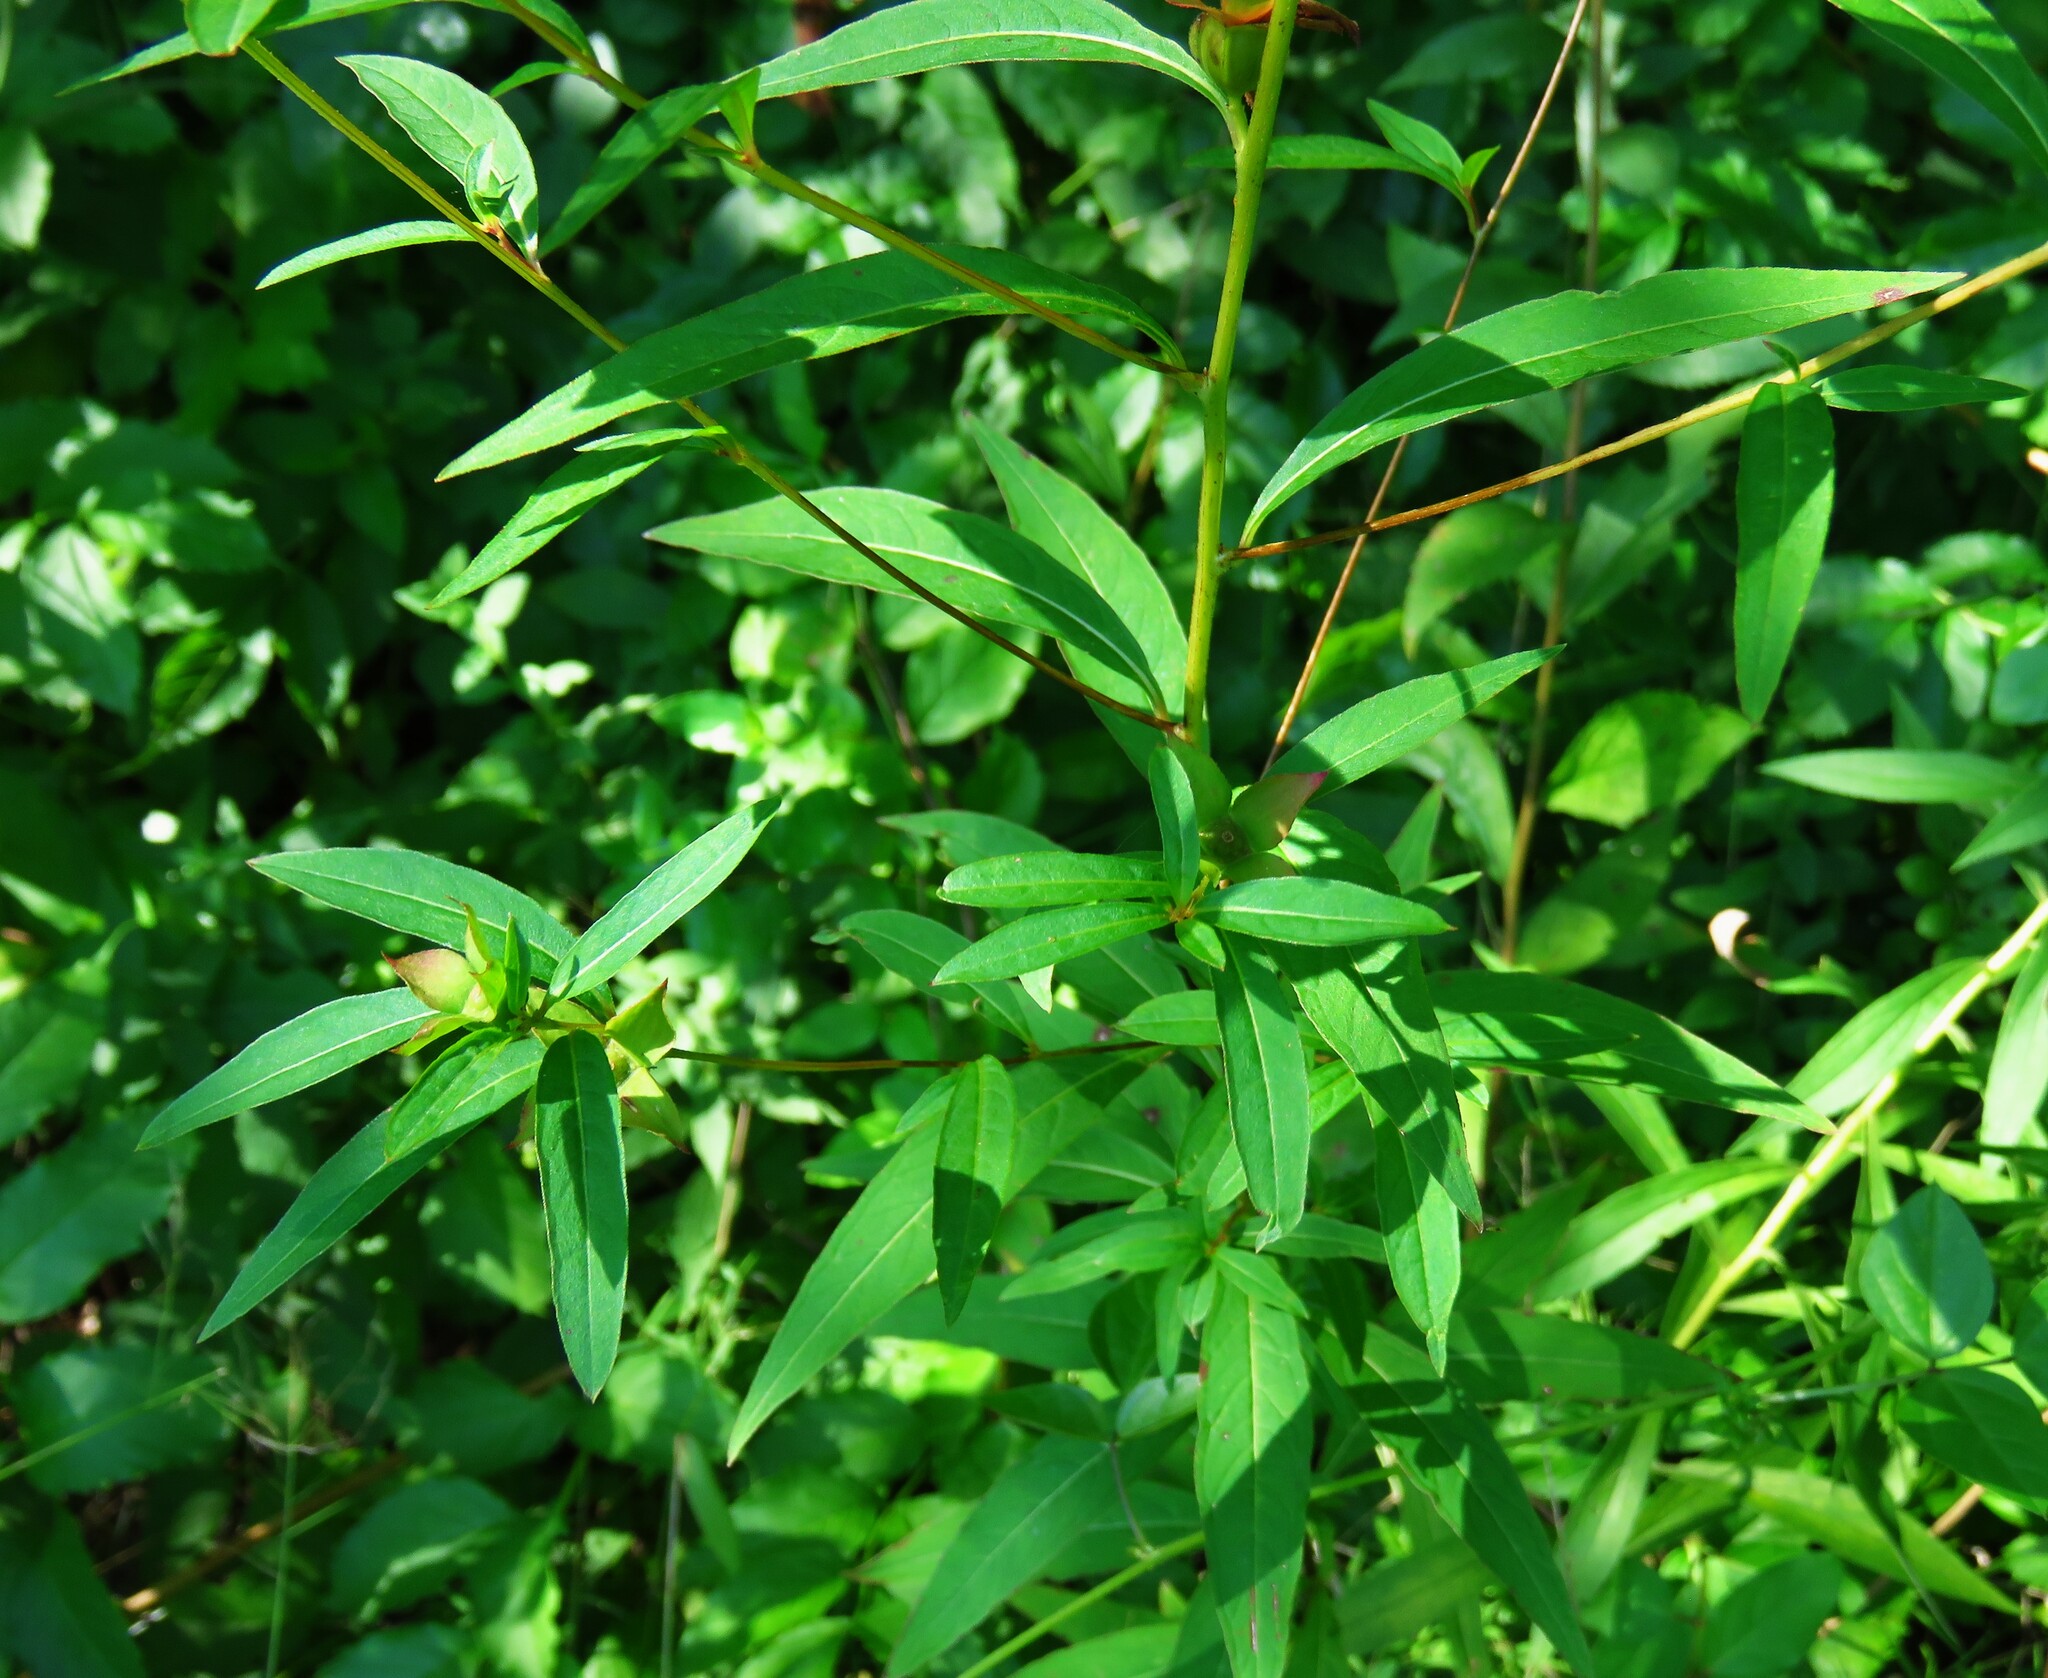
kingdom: Plantae
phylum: Tracheophyta
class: Magnoliopsida
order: Myrtales
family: Onagraceae
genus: Ludwigia
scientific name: Ludwigia alternifolia
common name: Rattlebox
